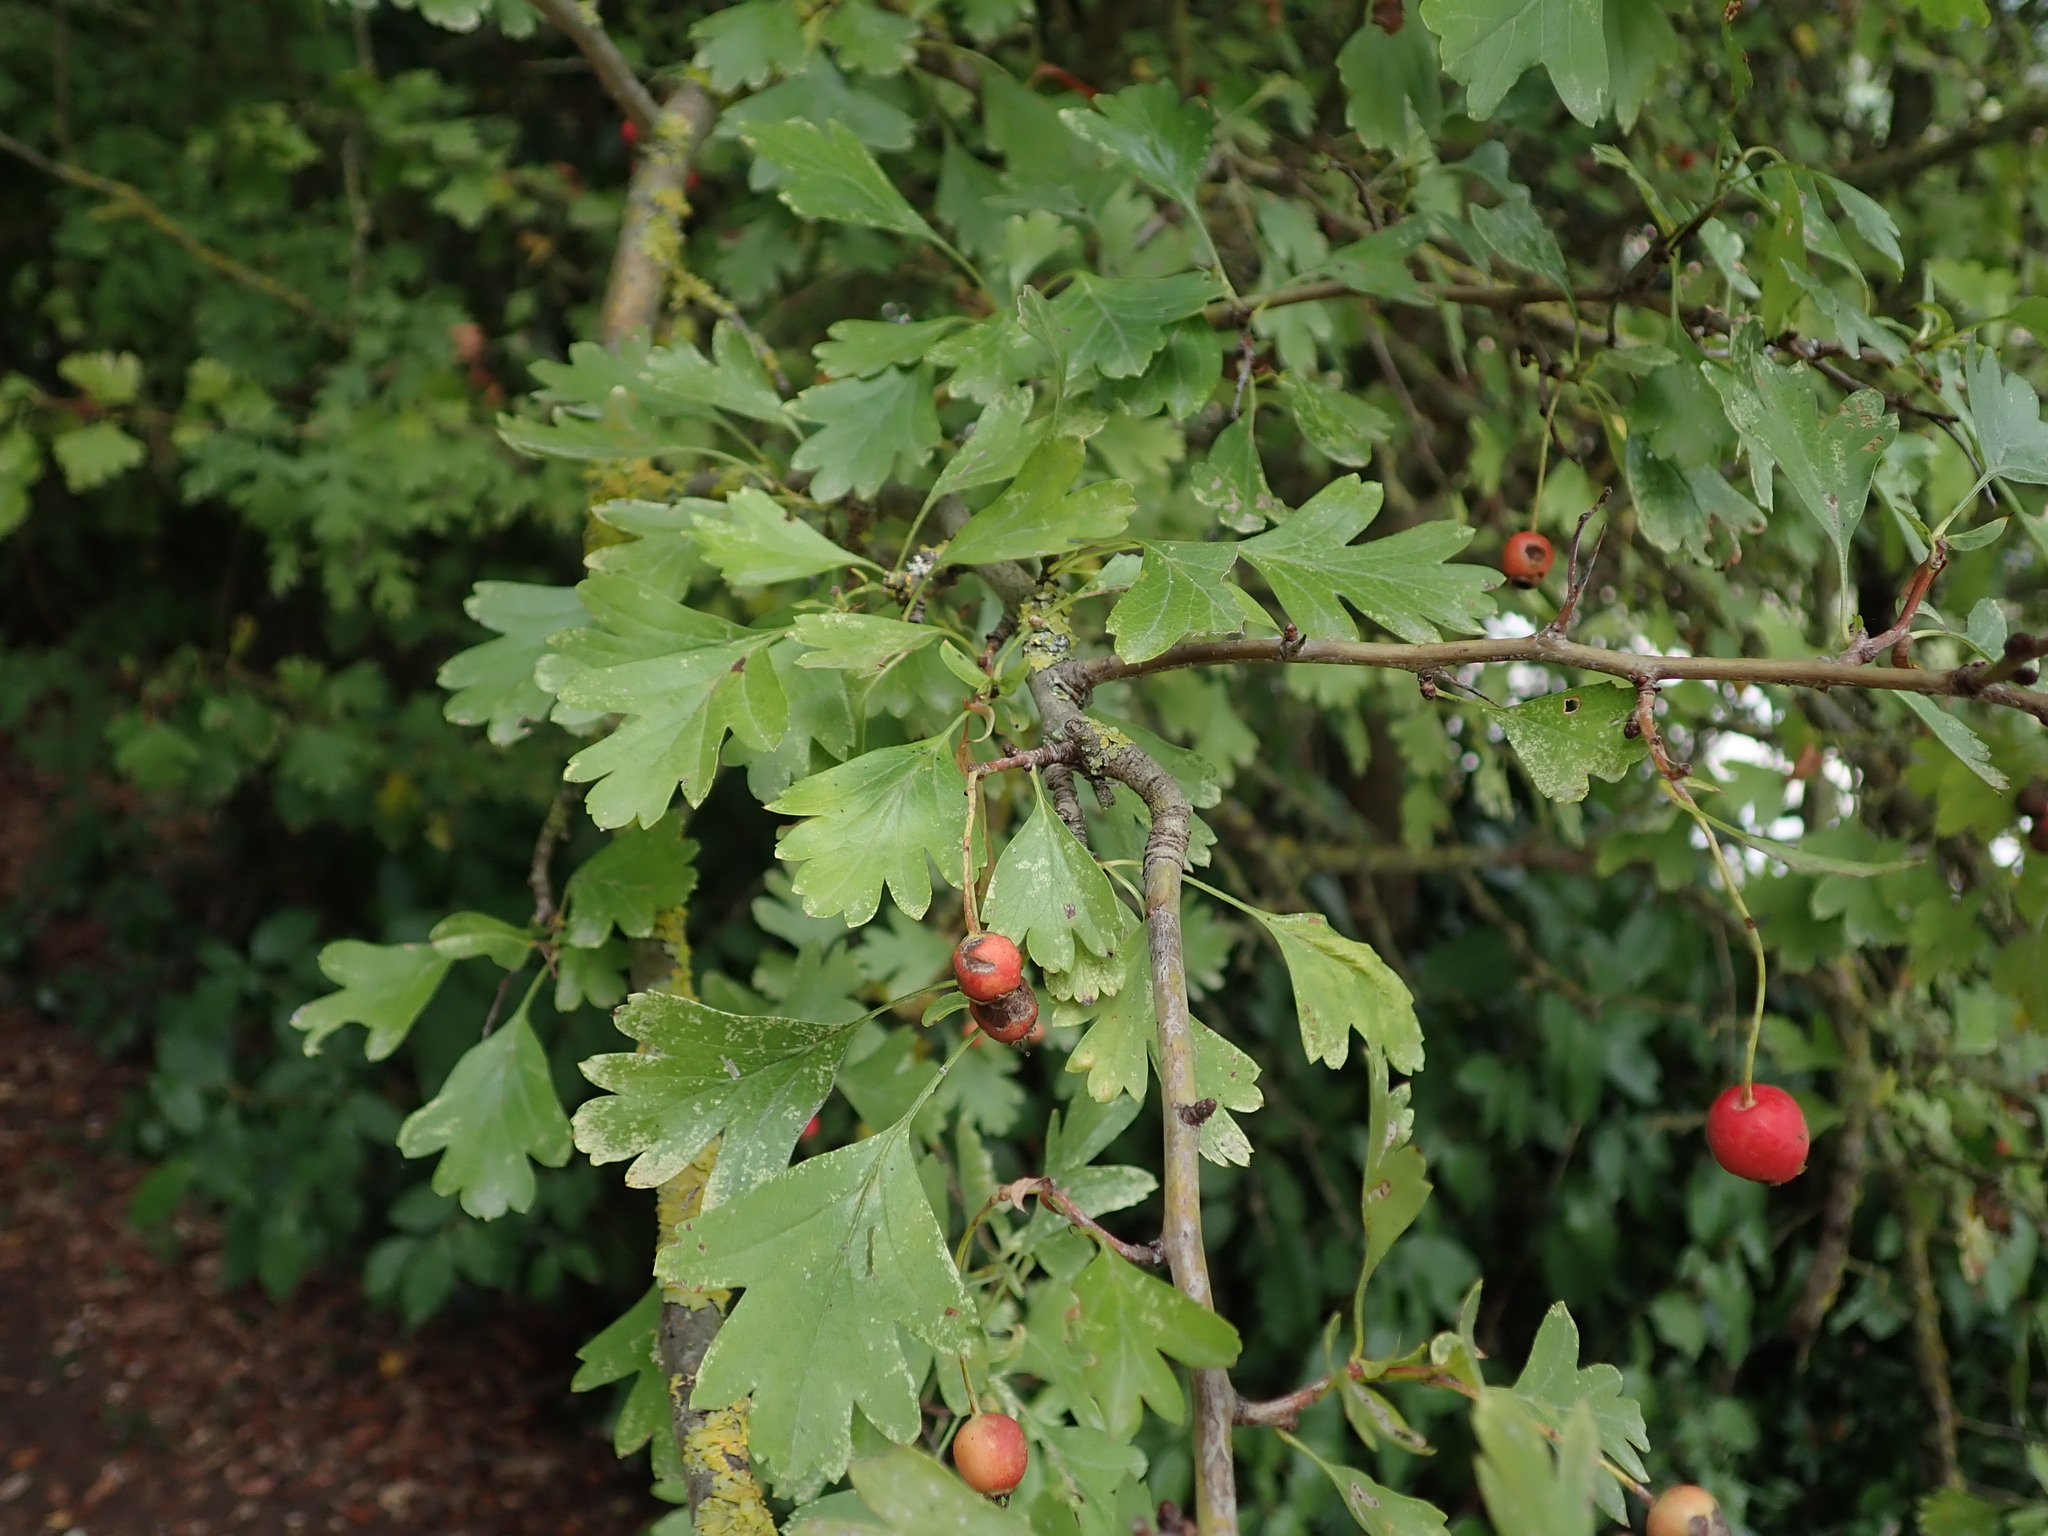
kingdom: Plantae
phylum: Tracheophyta
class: Magnoliopsida
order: Rosales
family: Rosaceae
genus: Crataegus
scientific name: Crataegus monogyna
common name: Hawthorn
